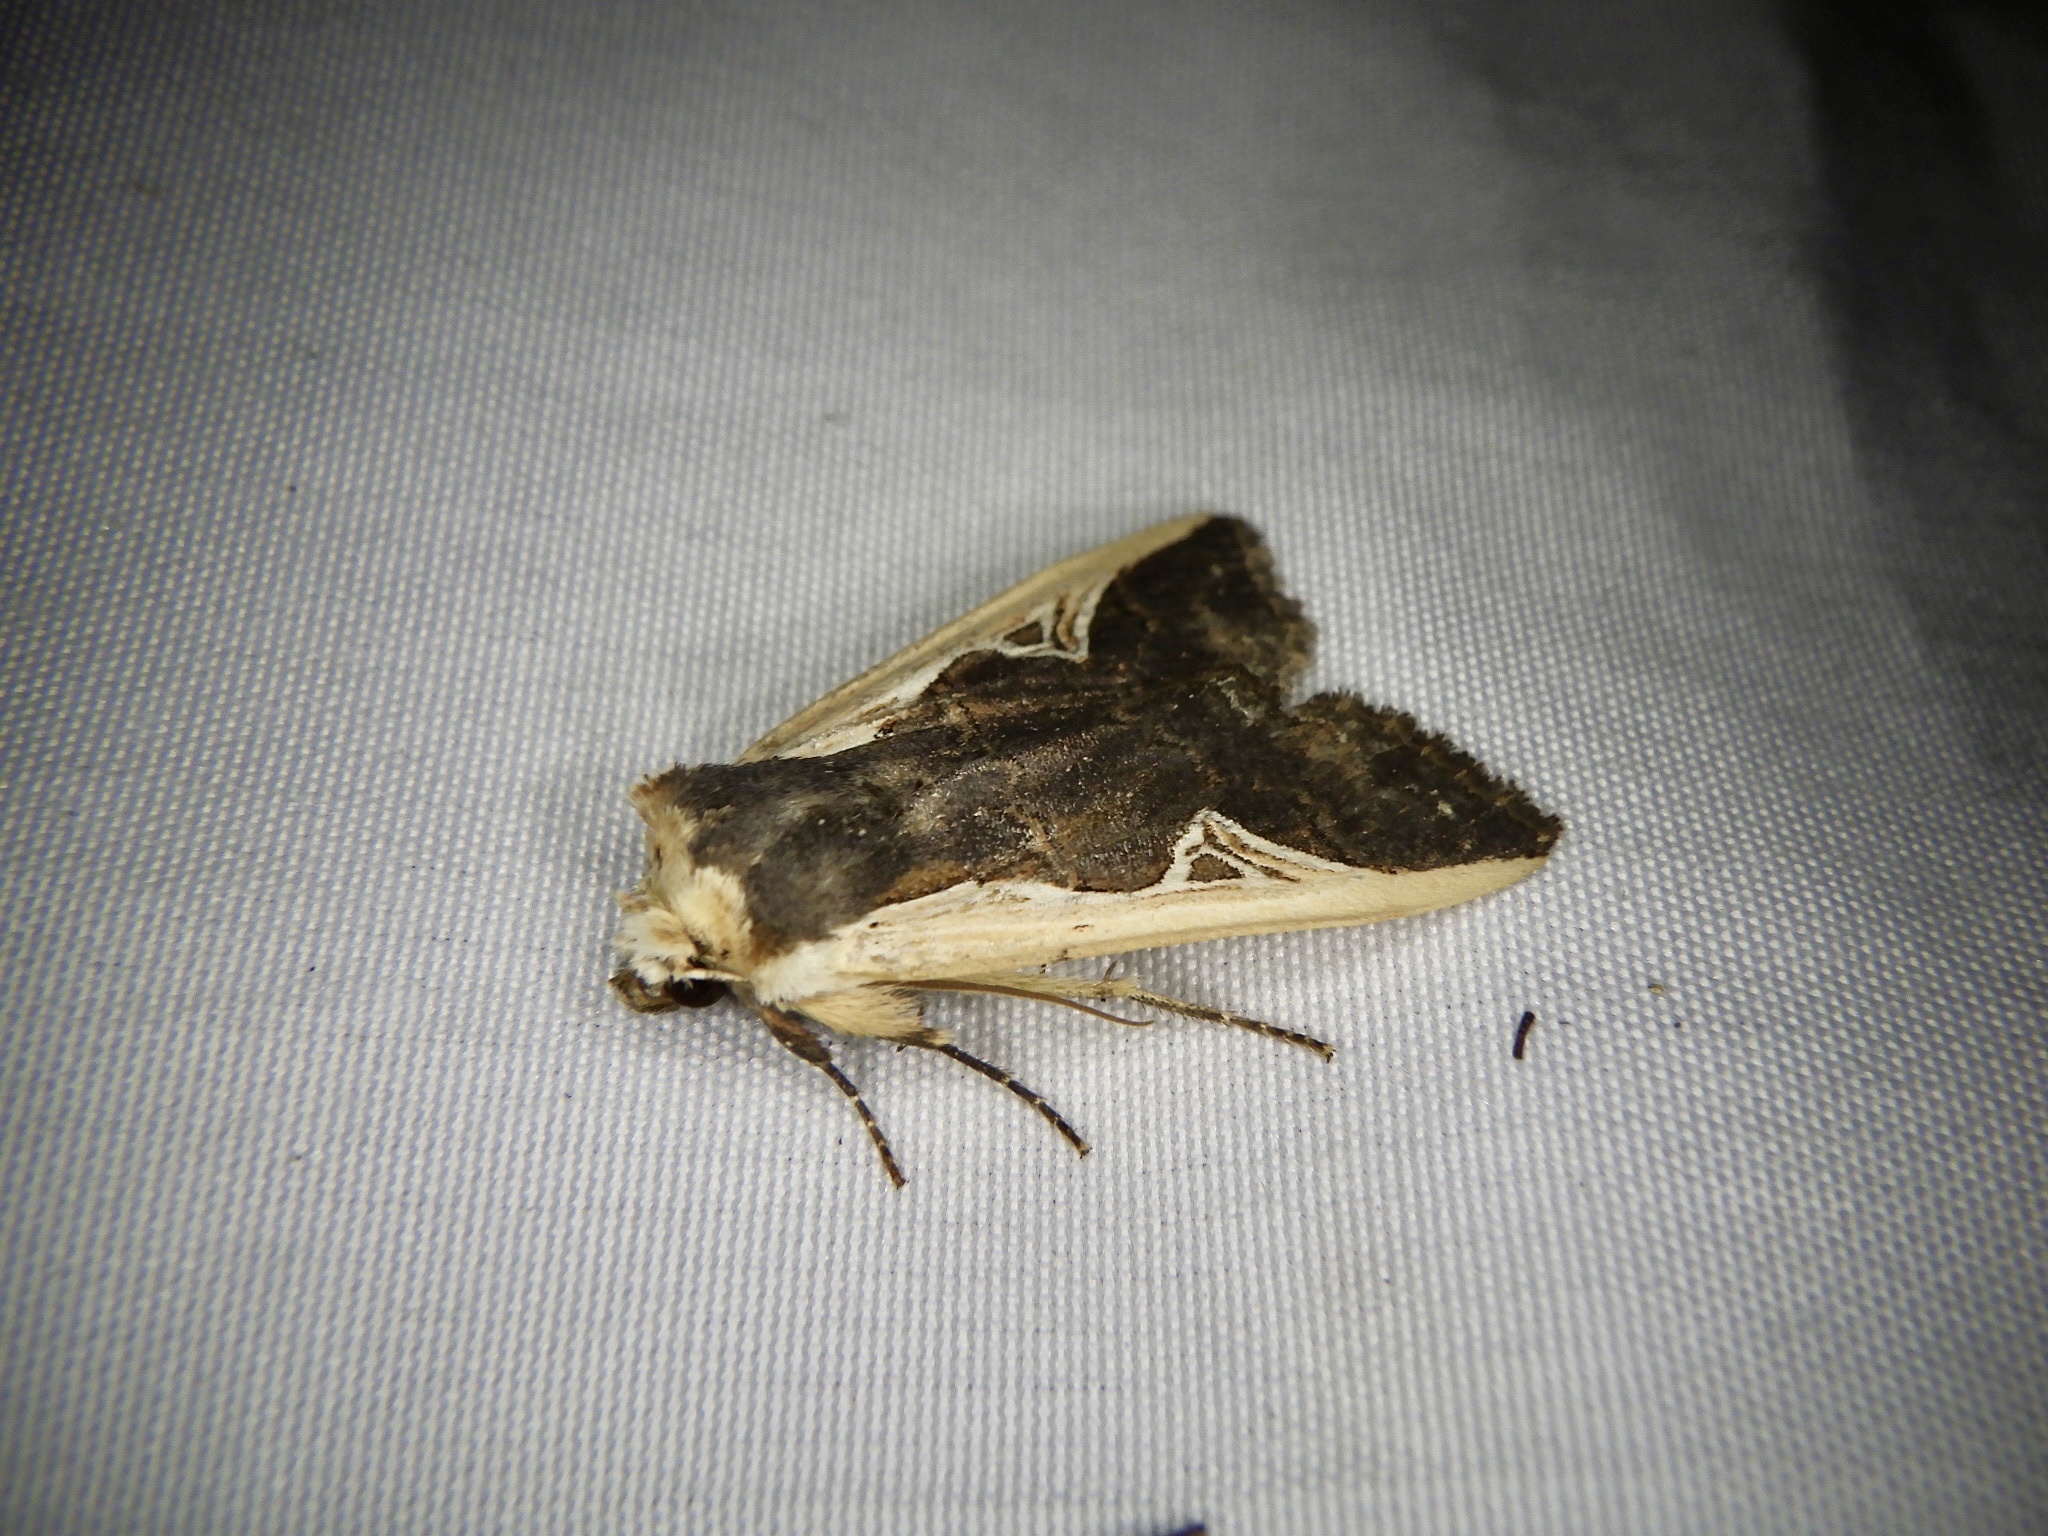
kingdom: Animalia
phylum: Arthropoda
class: Insecta
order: Lepidoptera
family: Noctuidae
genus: Hemiglaea
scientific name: Hemiglaea costalis
